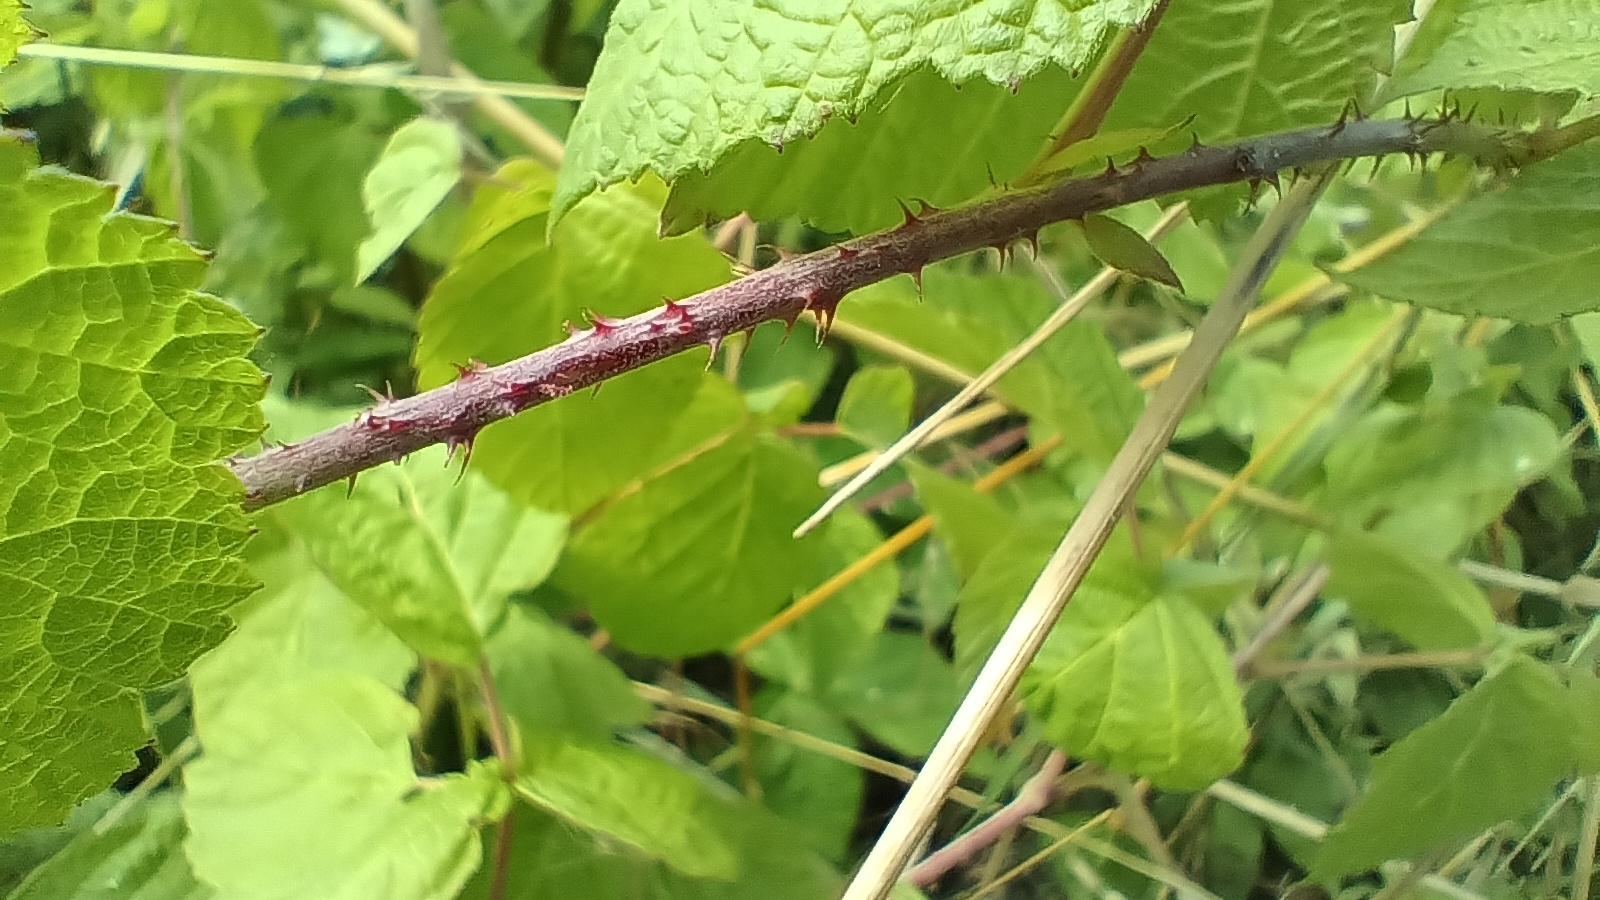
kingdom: Plantae
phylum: Tracheophyta
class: Magnoliopsida
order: Rosales
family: Rosaceae
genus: Rubus
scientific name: Rubus caesius
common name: Dewberry
